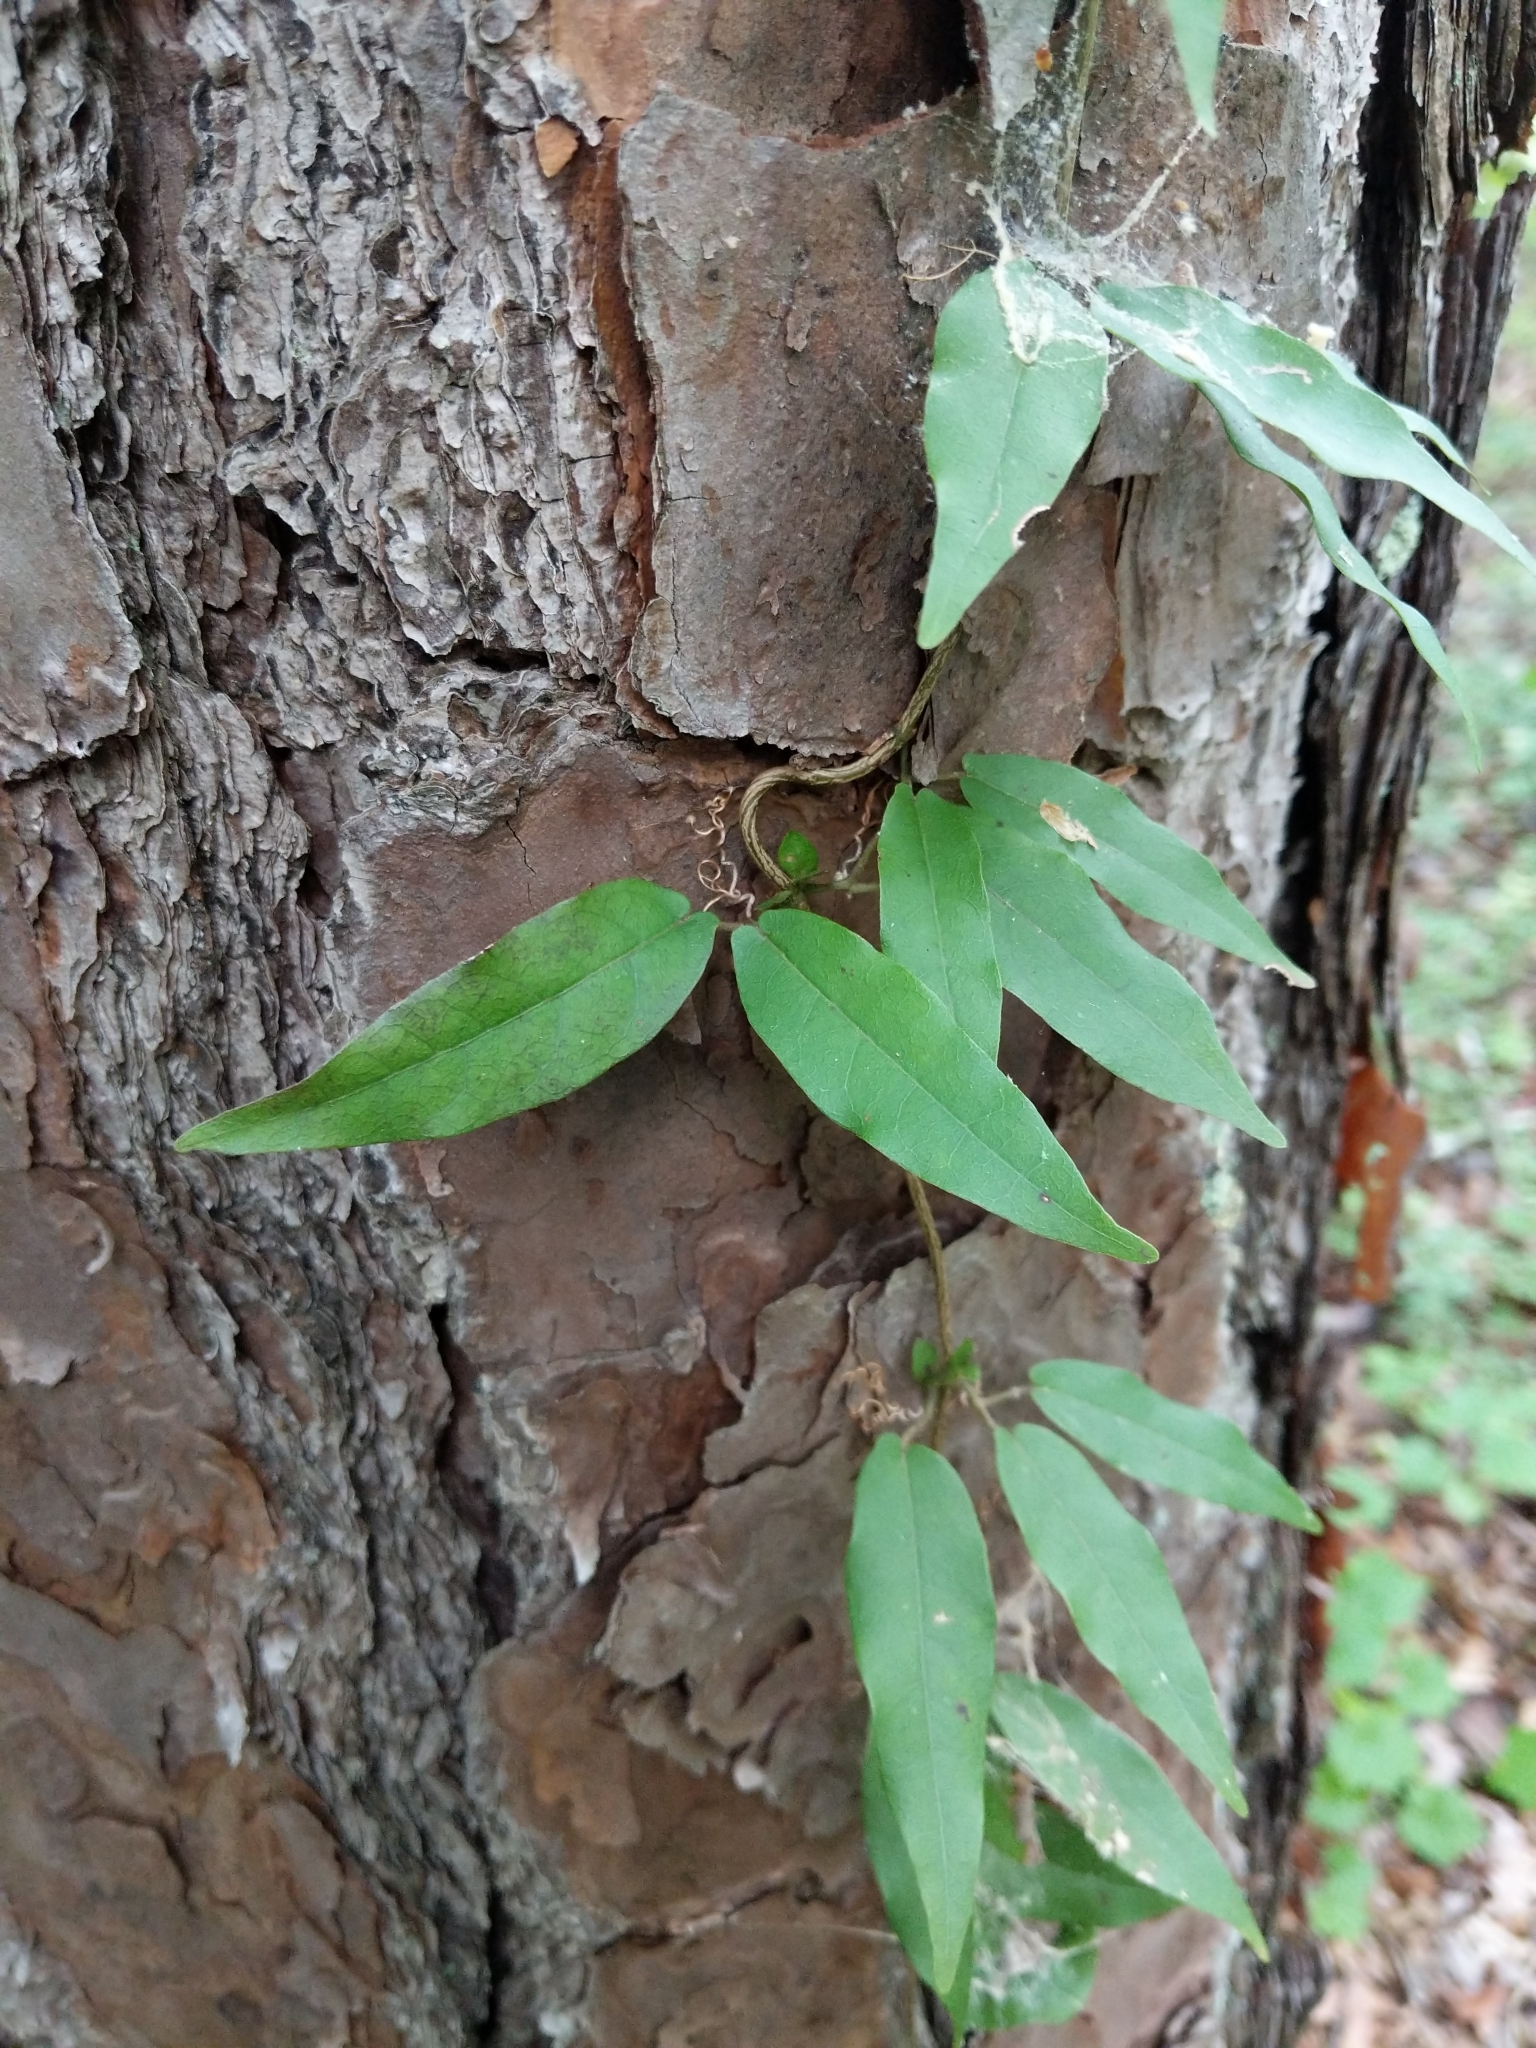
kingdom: Plantae
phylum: Tracheophyta
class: Magnoliopsida
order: Lamiales
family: Bignoniaceae
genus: Bignonia
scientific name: Bignonia capreolata
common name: Crossvine
